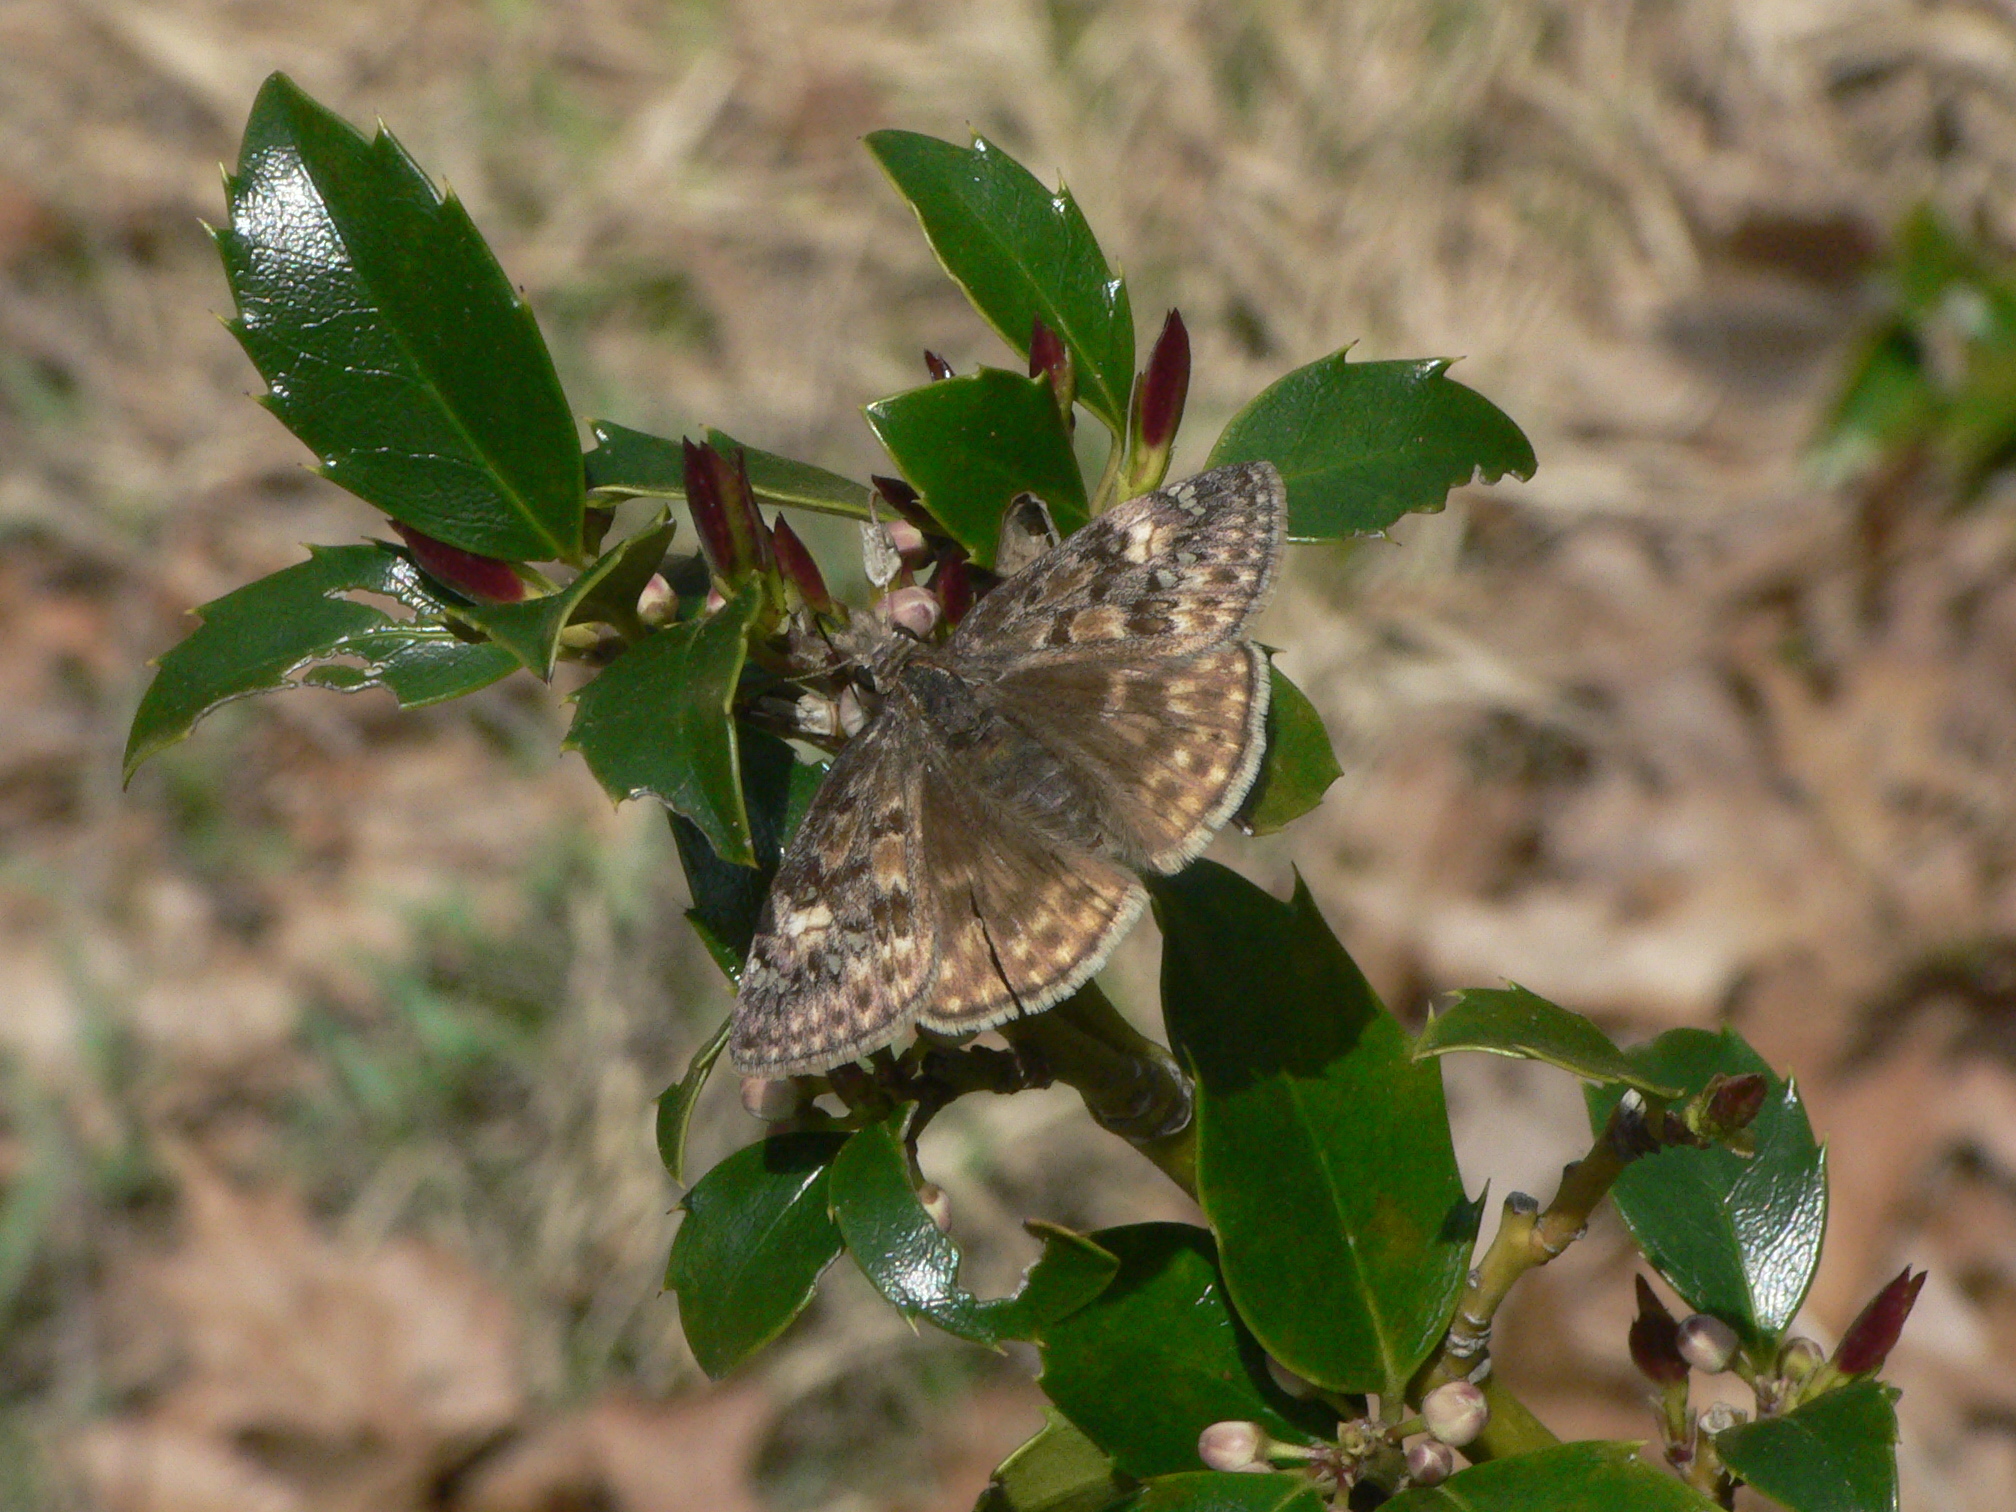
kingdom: Animalia
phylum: Arthropoda
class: Insecta
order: Lepidoptera
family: Hesperiidae
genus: Erynnis
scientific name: Erynnis juvenalis
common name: Juvenal's duskywing
